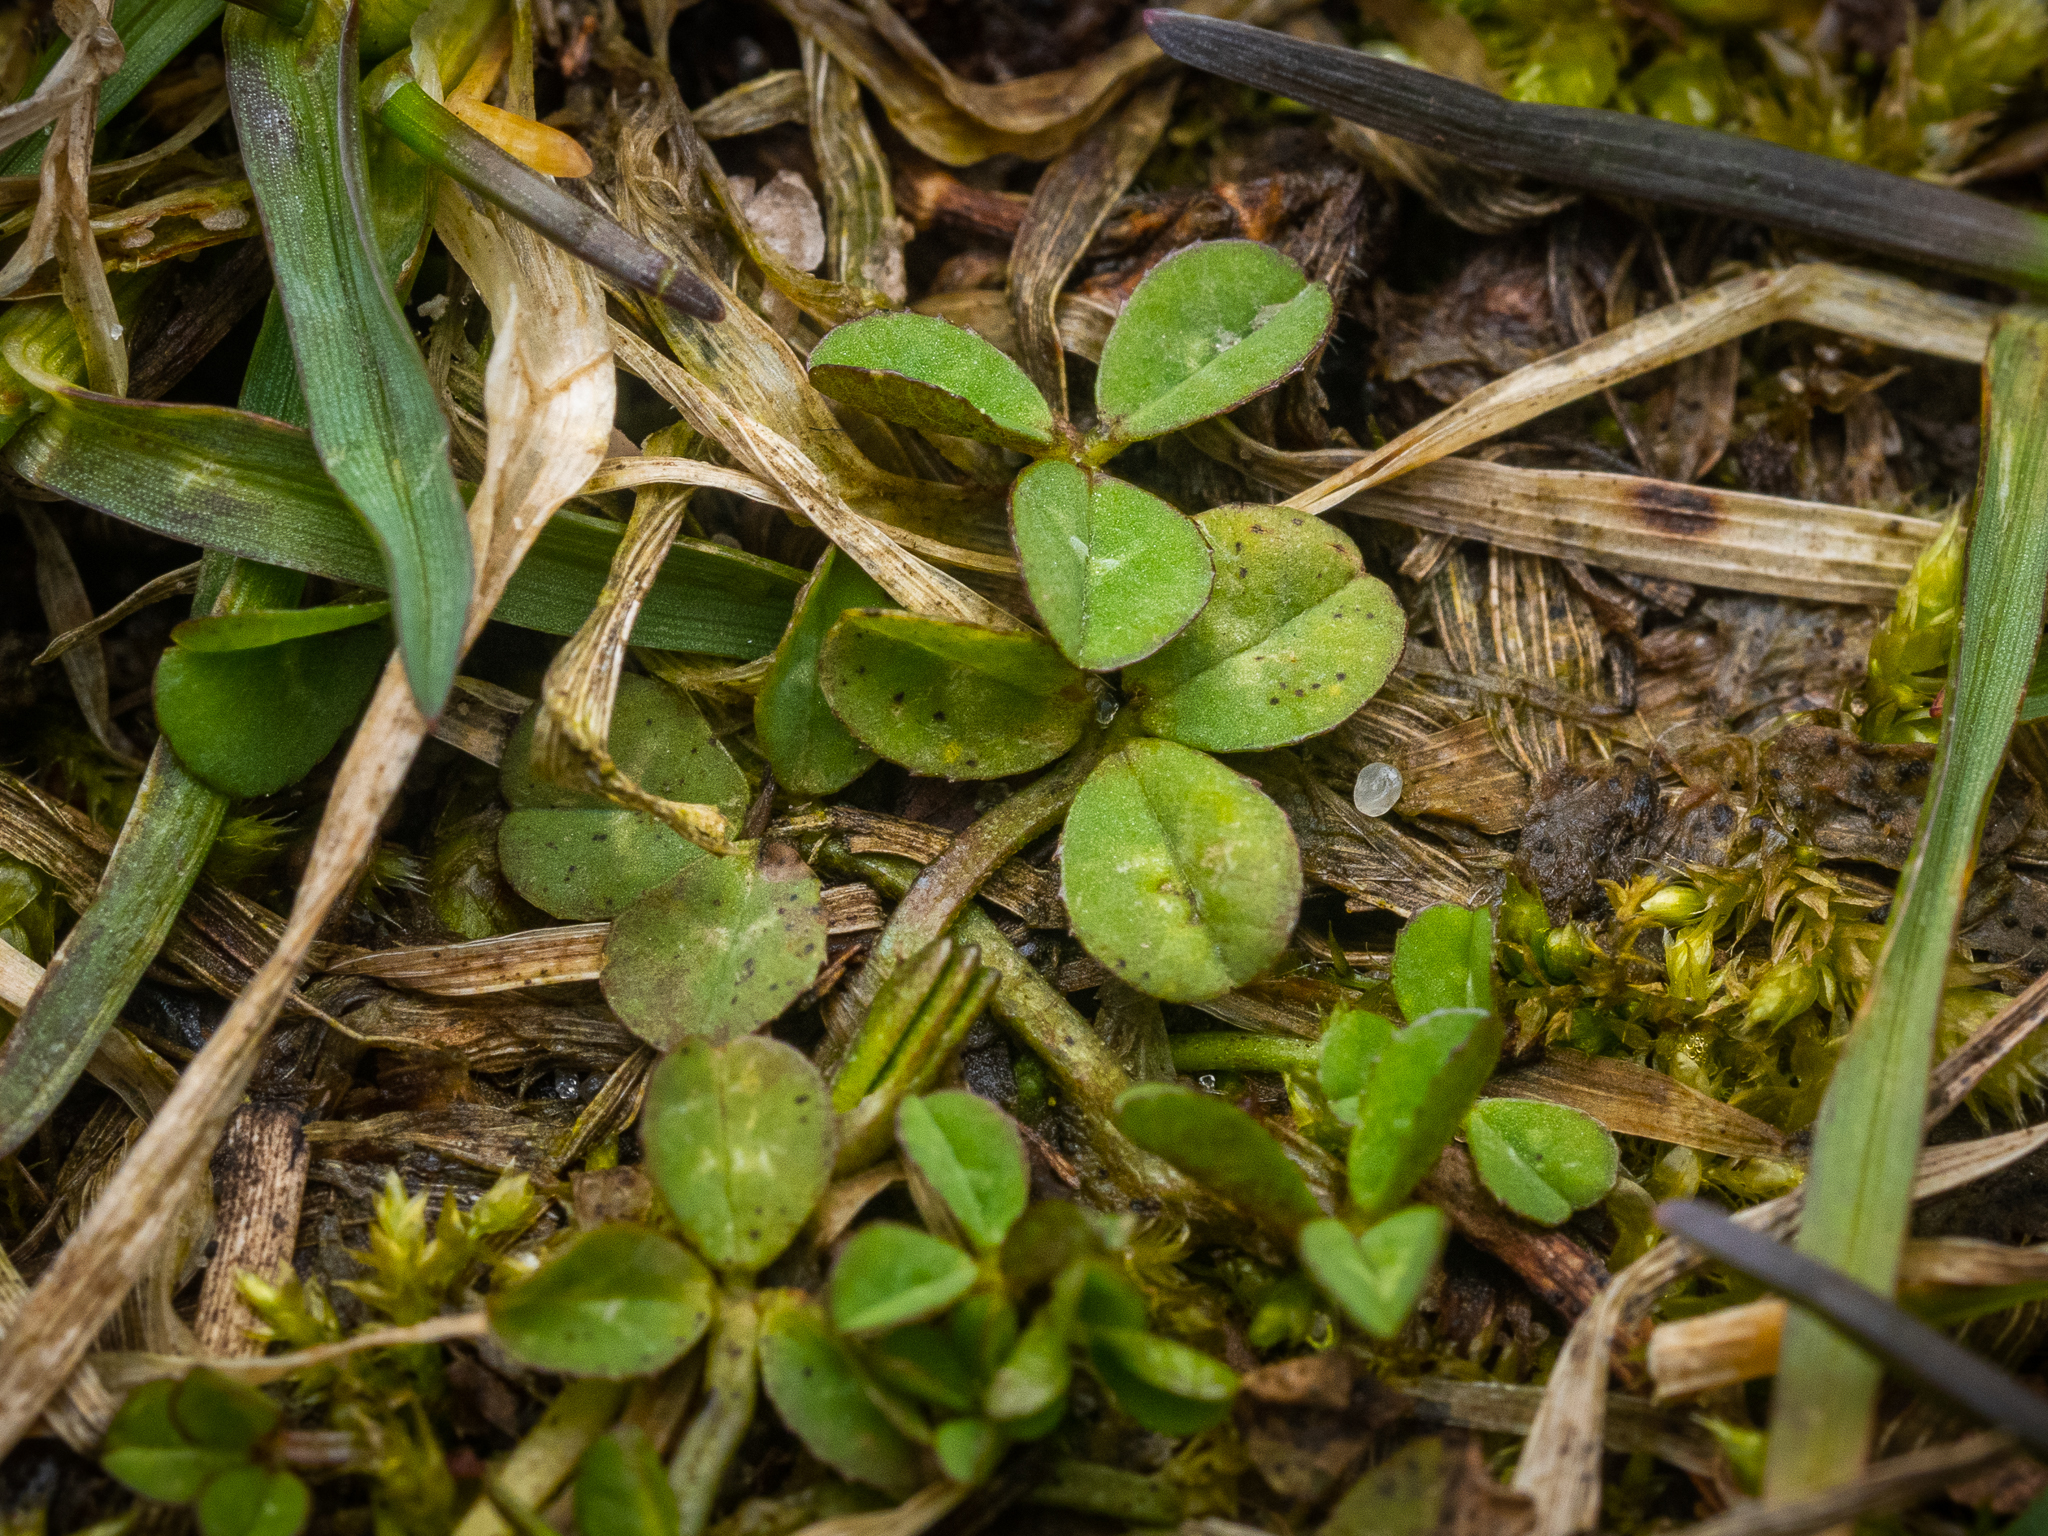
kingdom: Plantae
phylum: Tracheophyta
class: Magnoliopsida
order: Fabales
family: Fabaceae
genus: Trifolium
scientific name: Trifolium repens
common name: White clover
